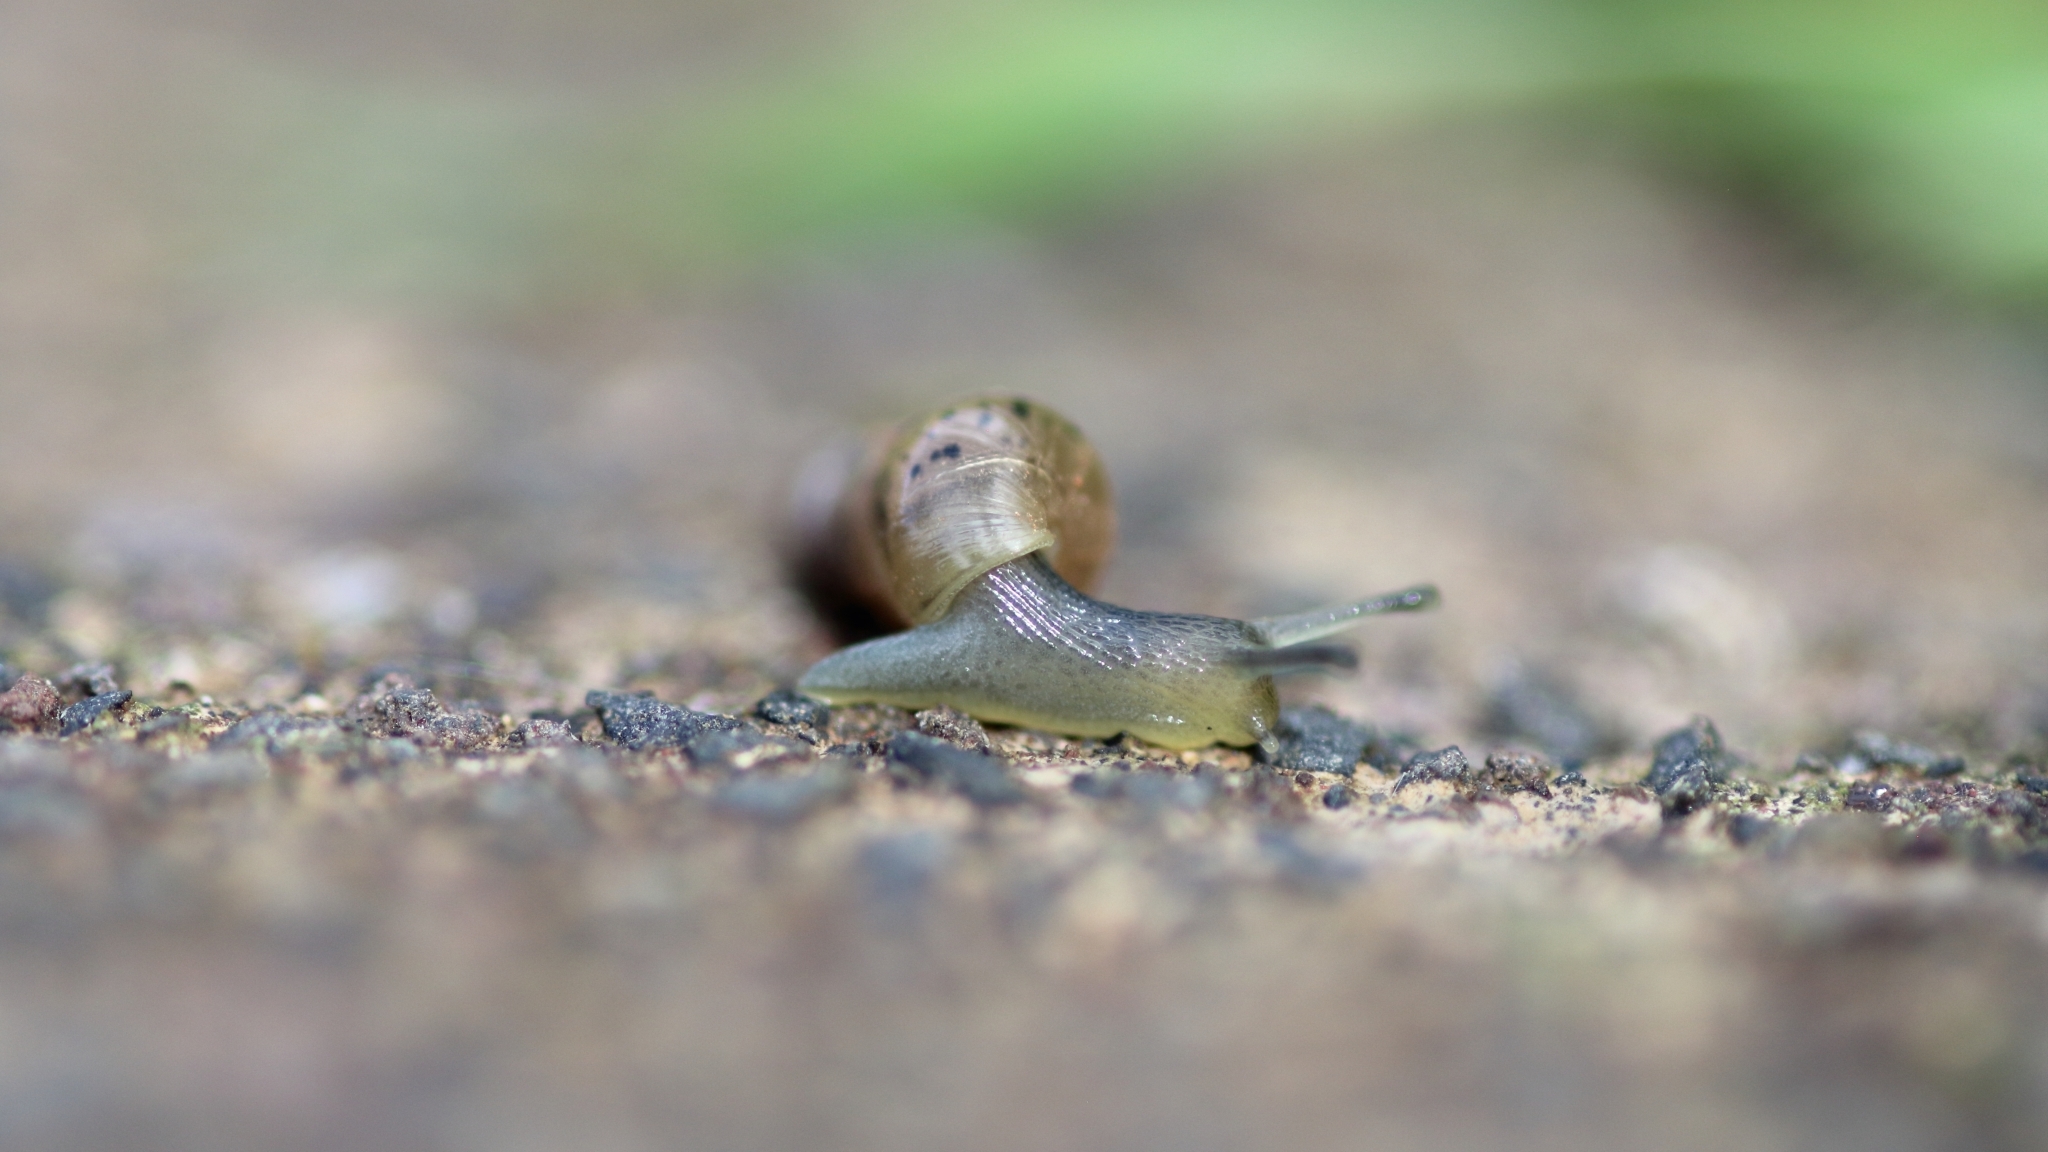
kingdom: Animalia
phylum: Mollusca
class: Gastropoda
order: Stylommatophora
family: Achatinidae
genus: Rumina
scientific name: Rumina decollata
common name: Decollate snail
